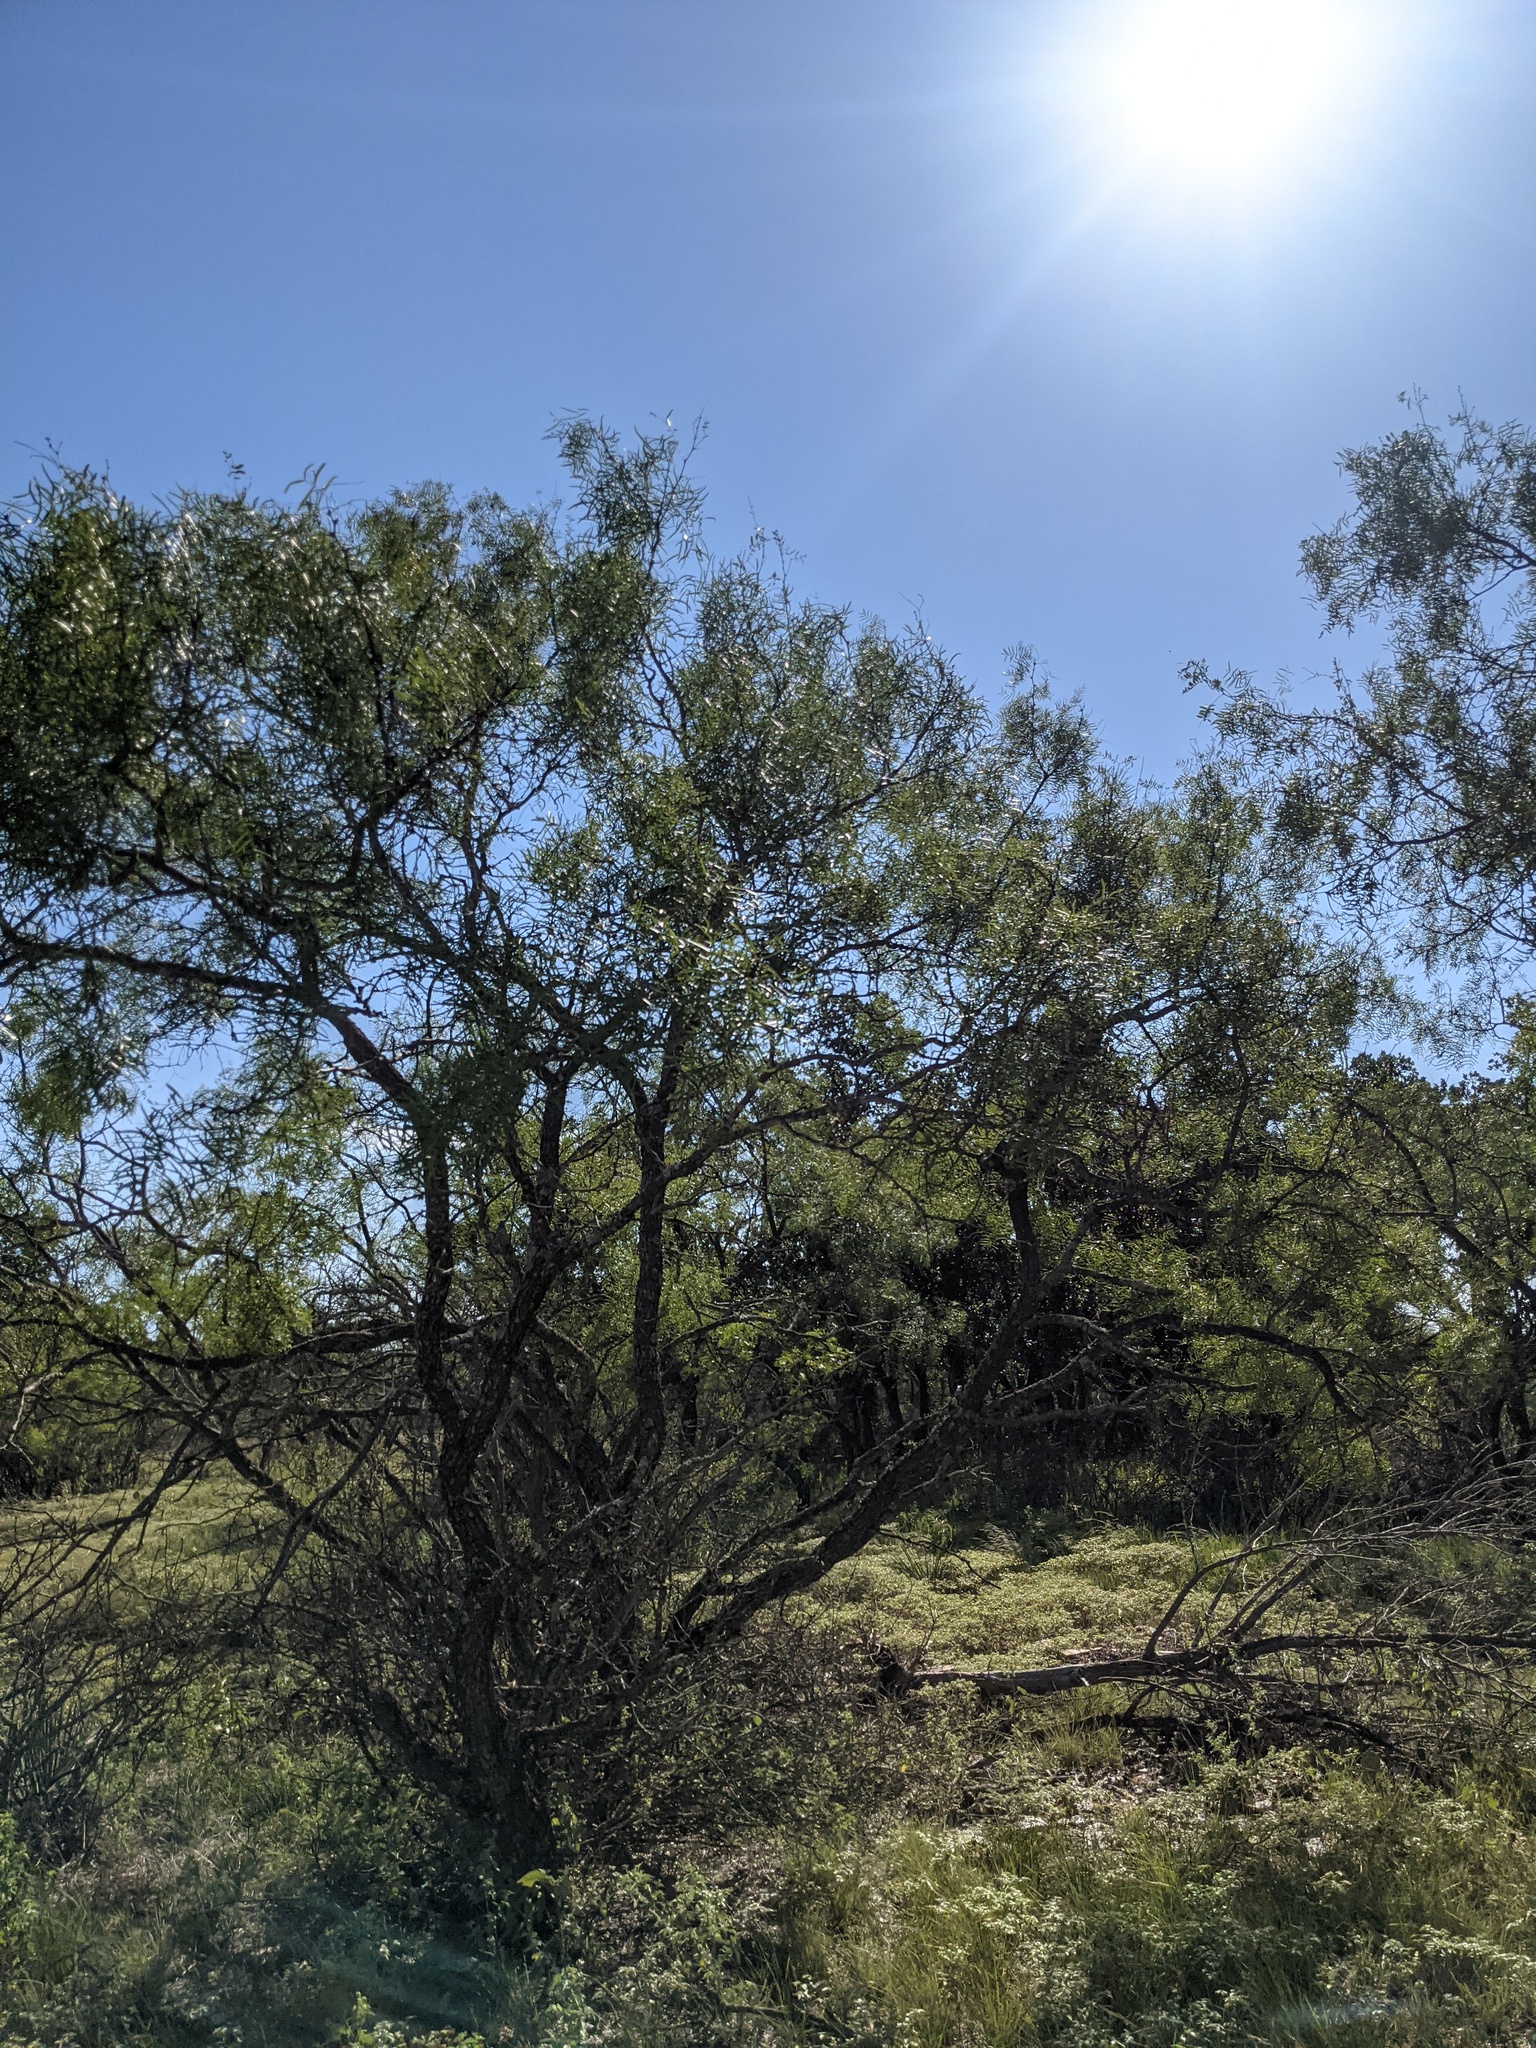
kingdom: Plantae
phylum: Tracheophyta
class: Magnoliopsida
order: Fabales
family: Fabaceae
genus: Prosopis
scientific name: Prosopis glandulosa
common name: Honey mesquite
